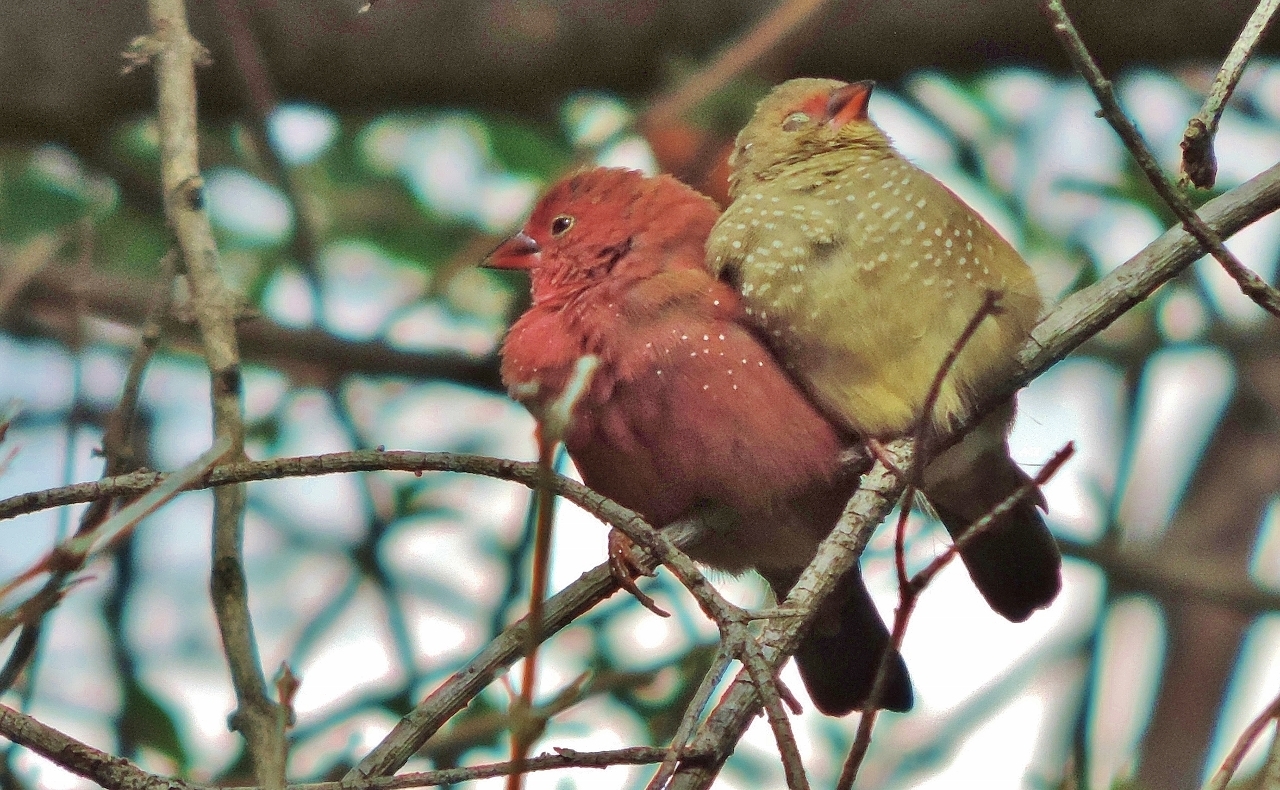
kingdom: Animalia
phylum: Chordata
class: Aves
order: Passeriformes
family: Estrildidae
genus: Lagonosticta
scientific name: Lagonosticta senegala
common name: Red-billed firefinch
